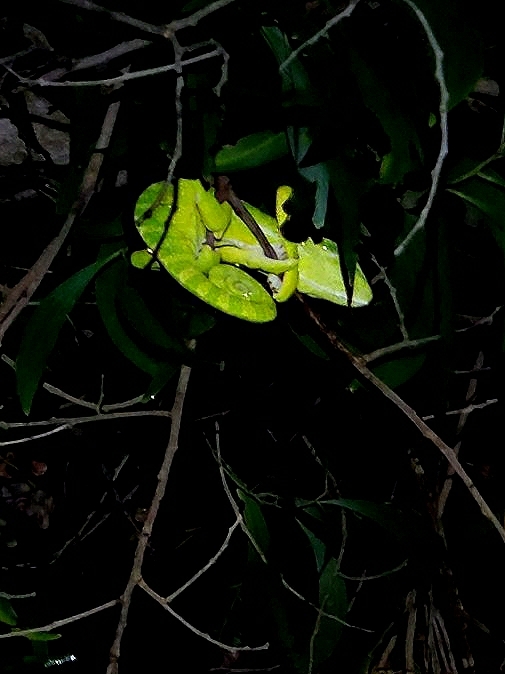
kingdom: Animalia
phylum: Chordata
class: Squamata
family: Chamaeleonidae
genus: Chamaeleo
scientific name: Chamaeleo zeylanicus
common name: Indian chameleon
